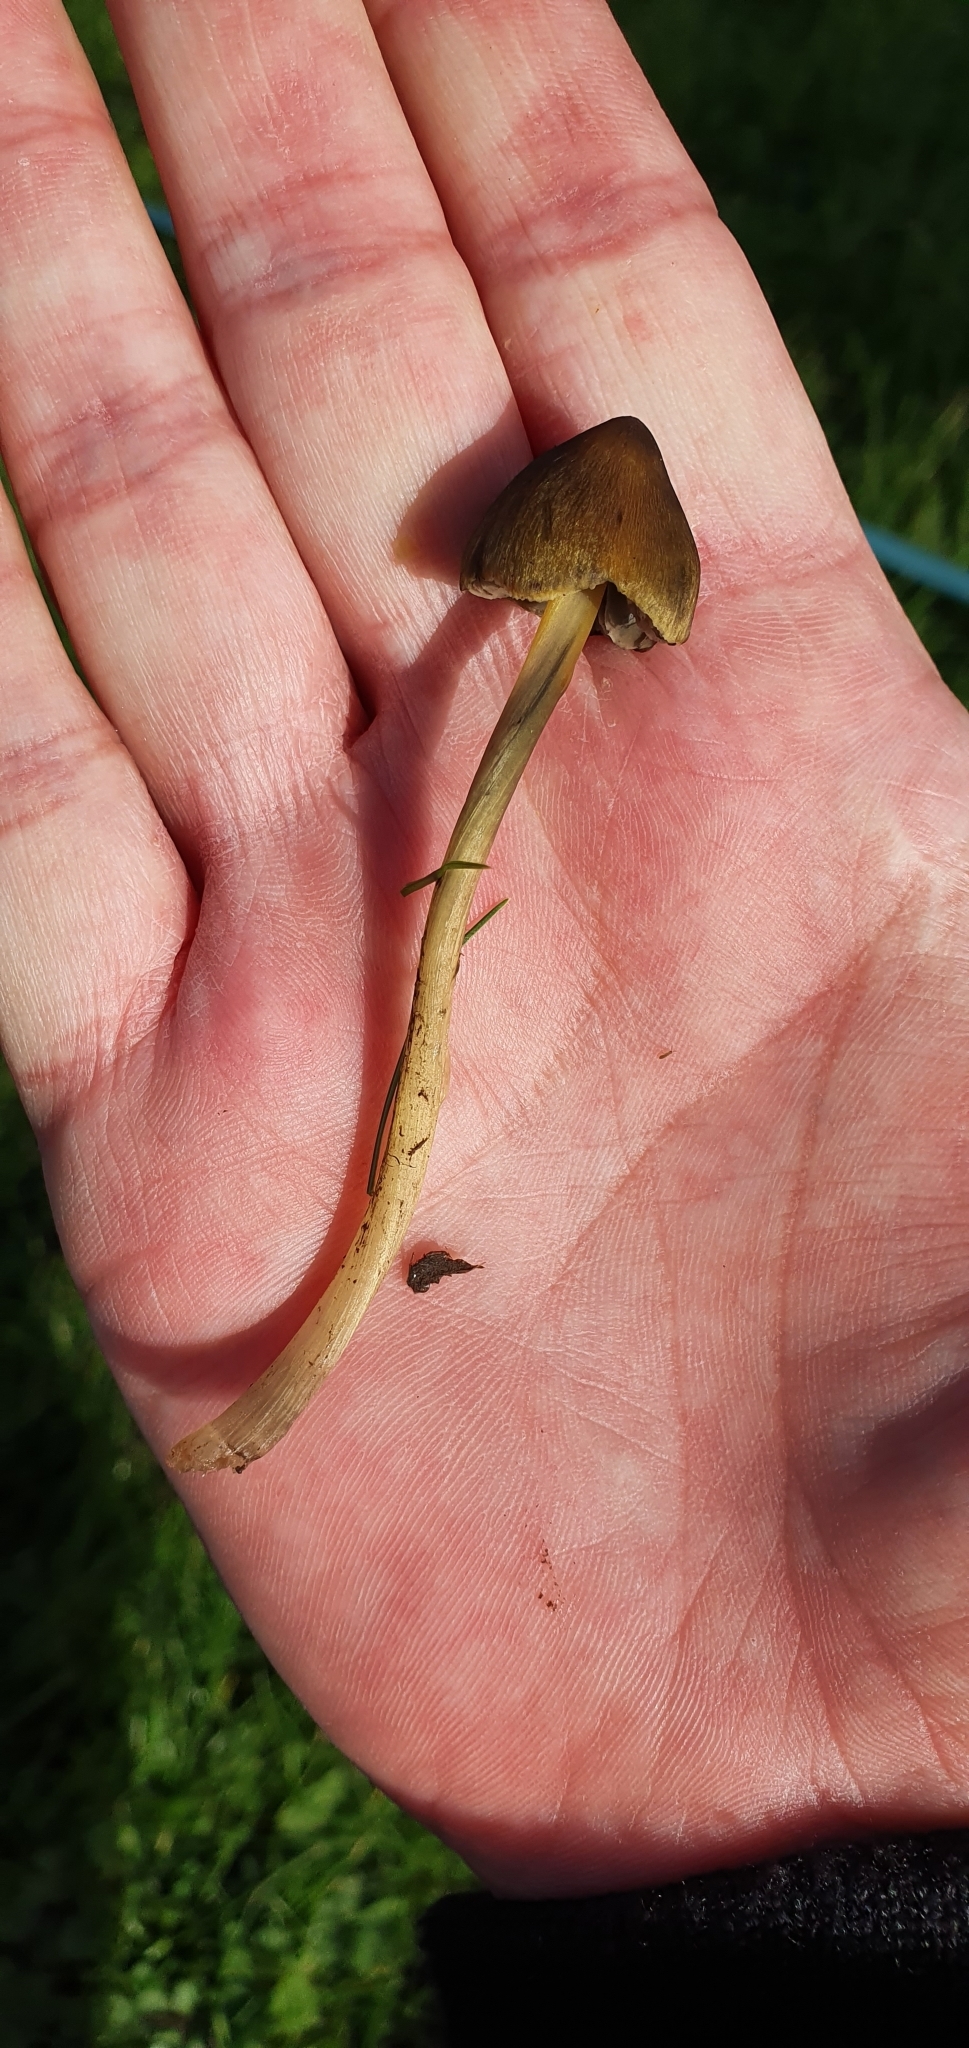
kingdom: Fungi
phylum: Basidiomycota
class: Agaricomycetes
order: Agaricales
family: Hygrophoraceae
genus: Hygrocybe
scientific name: Hygrocybe conica
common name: Blackening wax-cap
